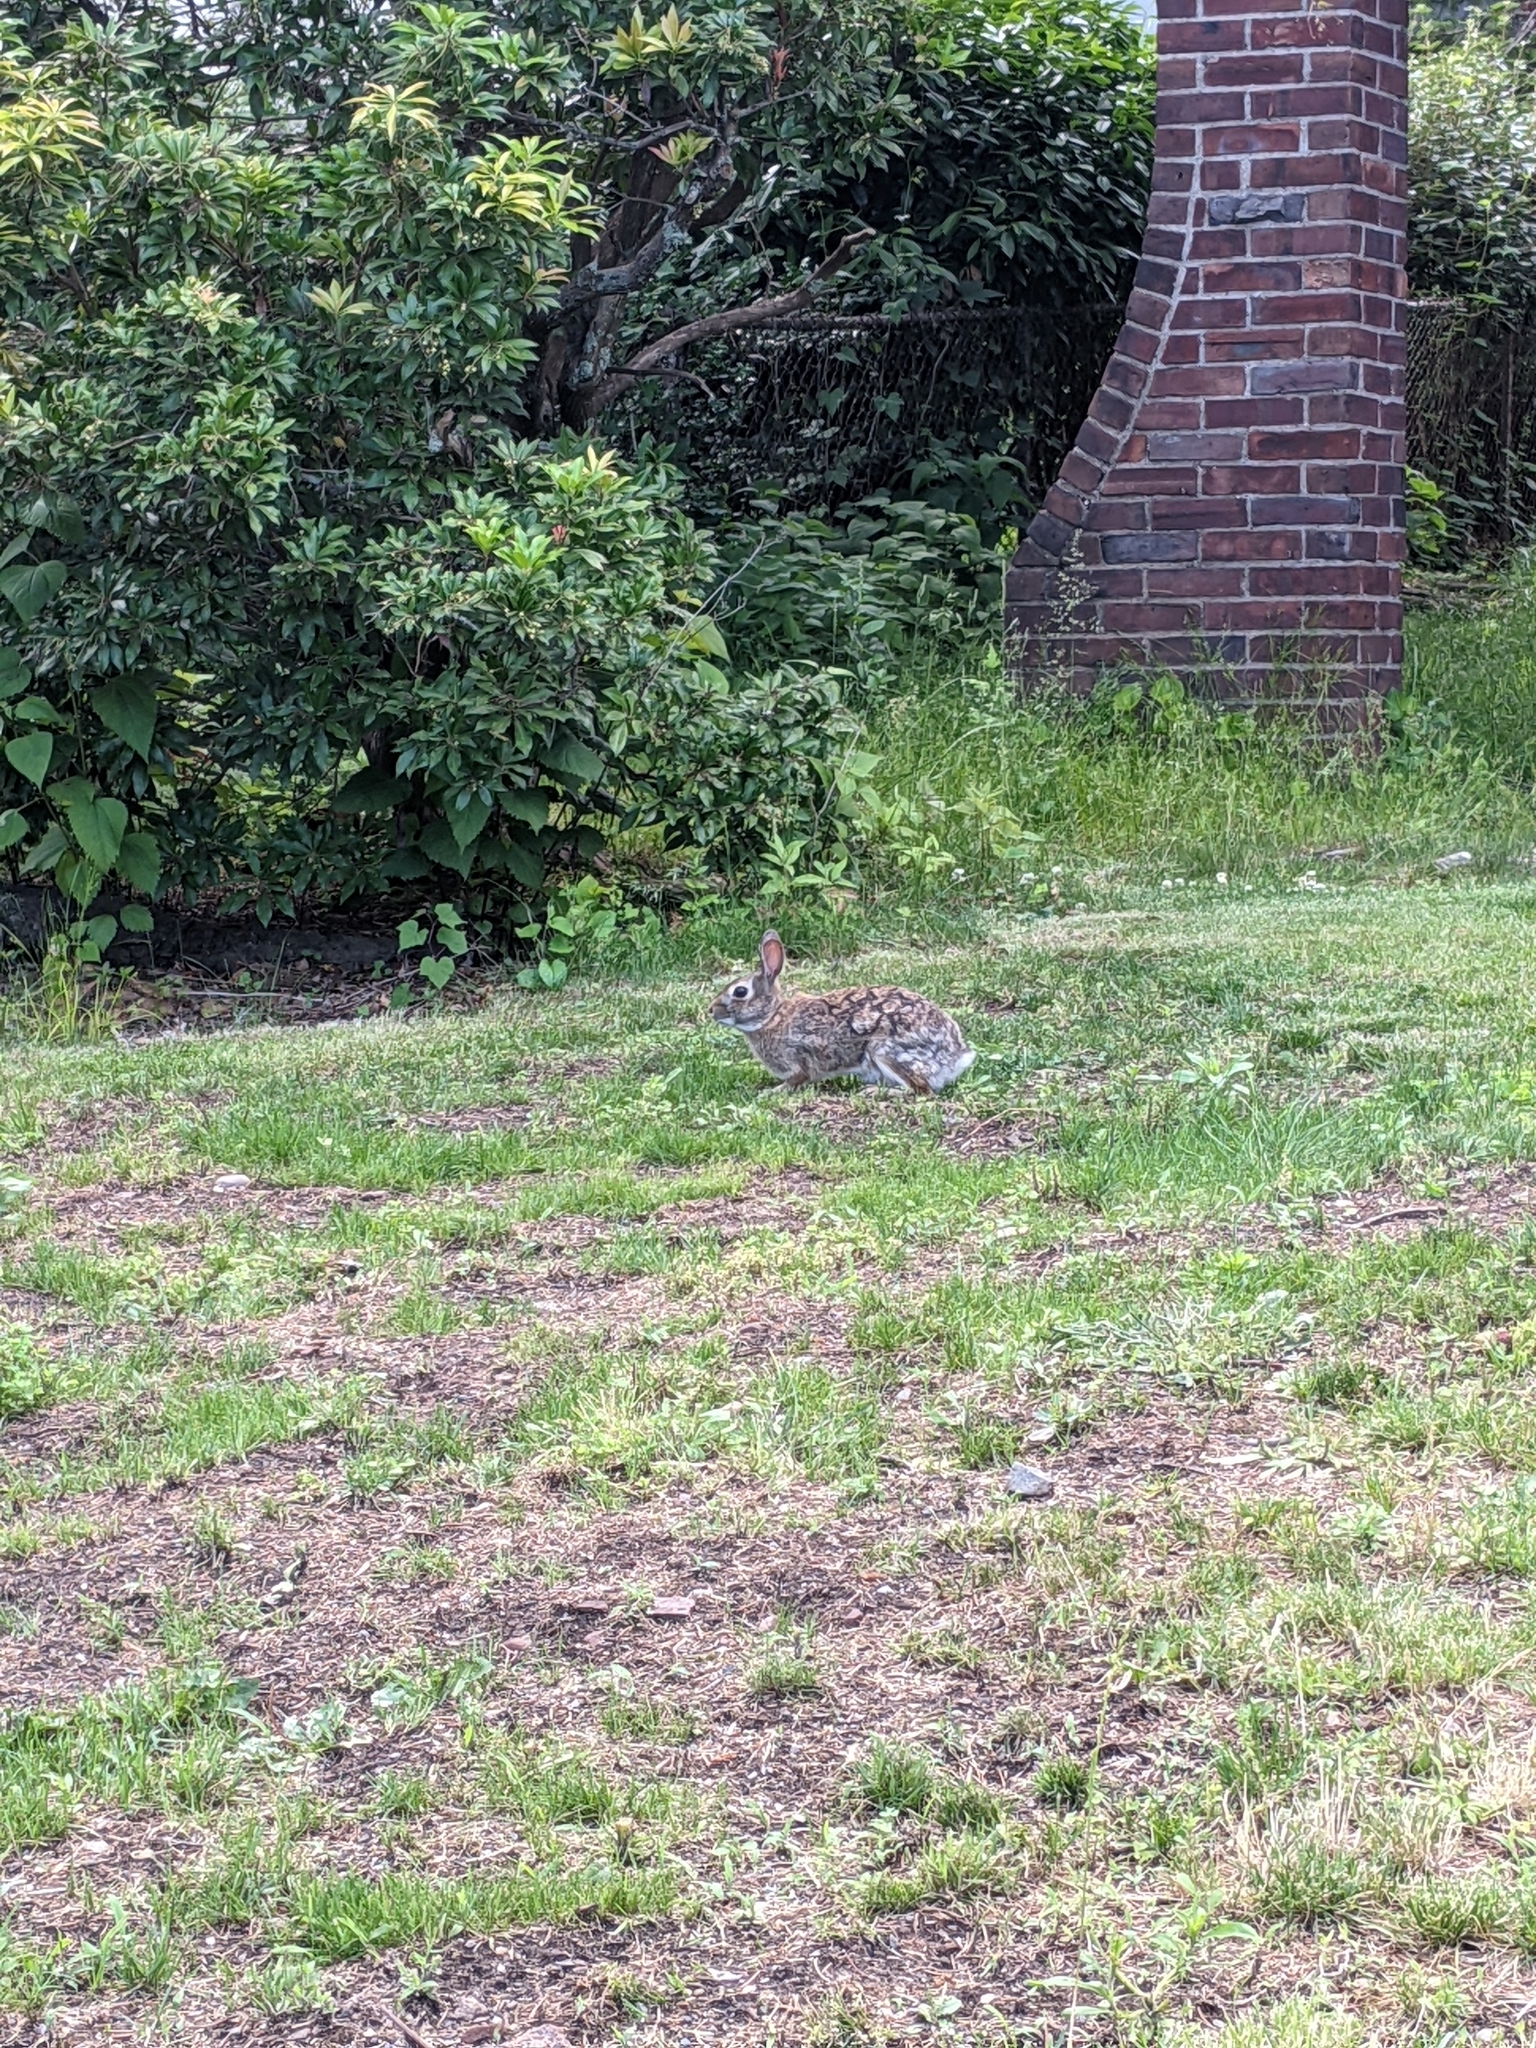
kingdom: Animalia
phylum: Chordata
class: Mammalia
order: Lagomorpha
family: Leporidae
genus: Sylvilagus
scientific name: Sylvilagus floridanus
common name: Eastern cottontail
